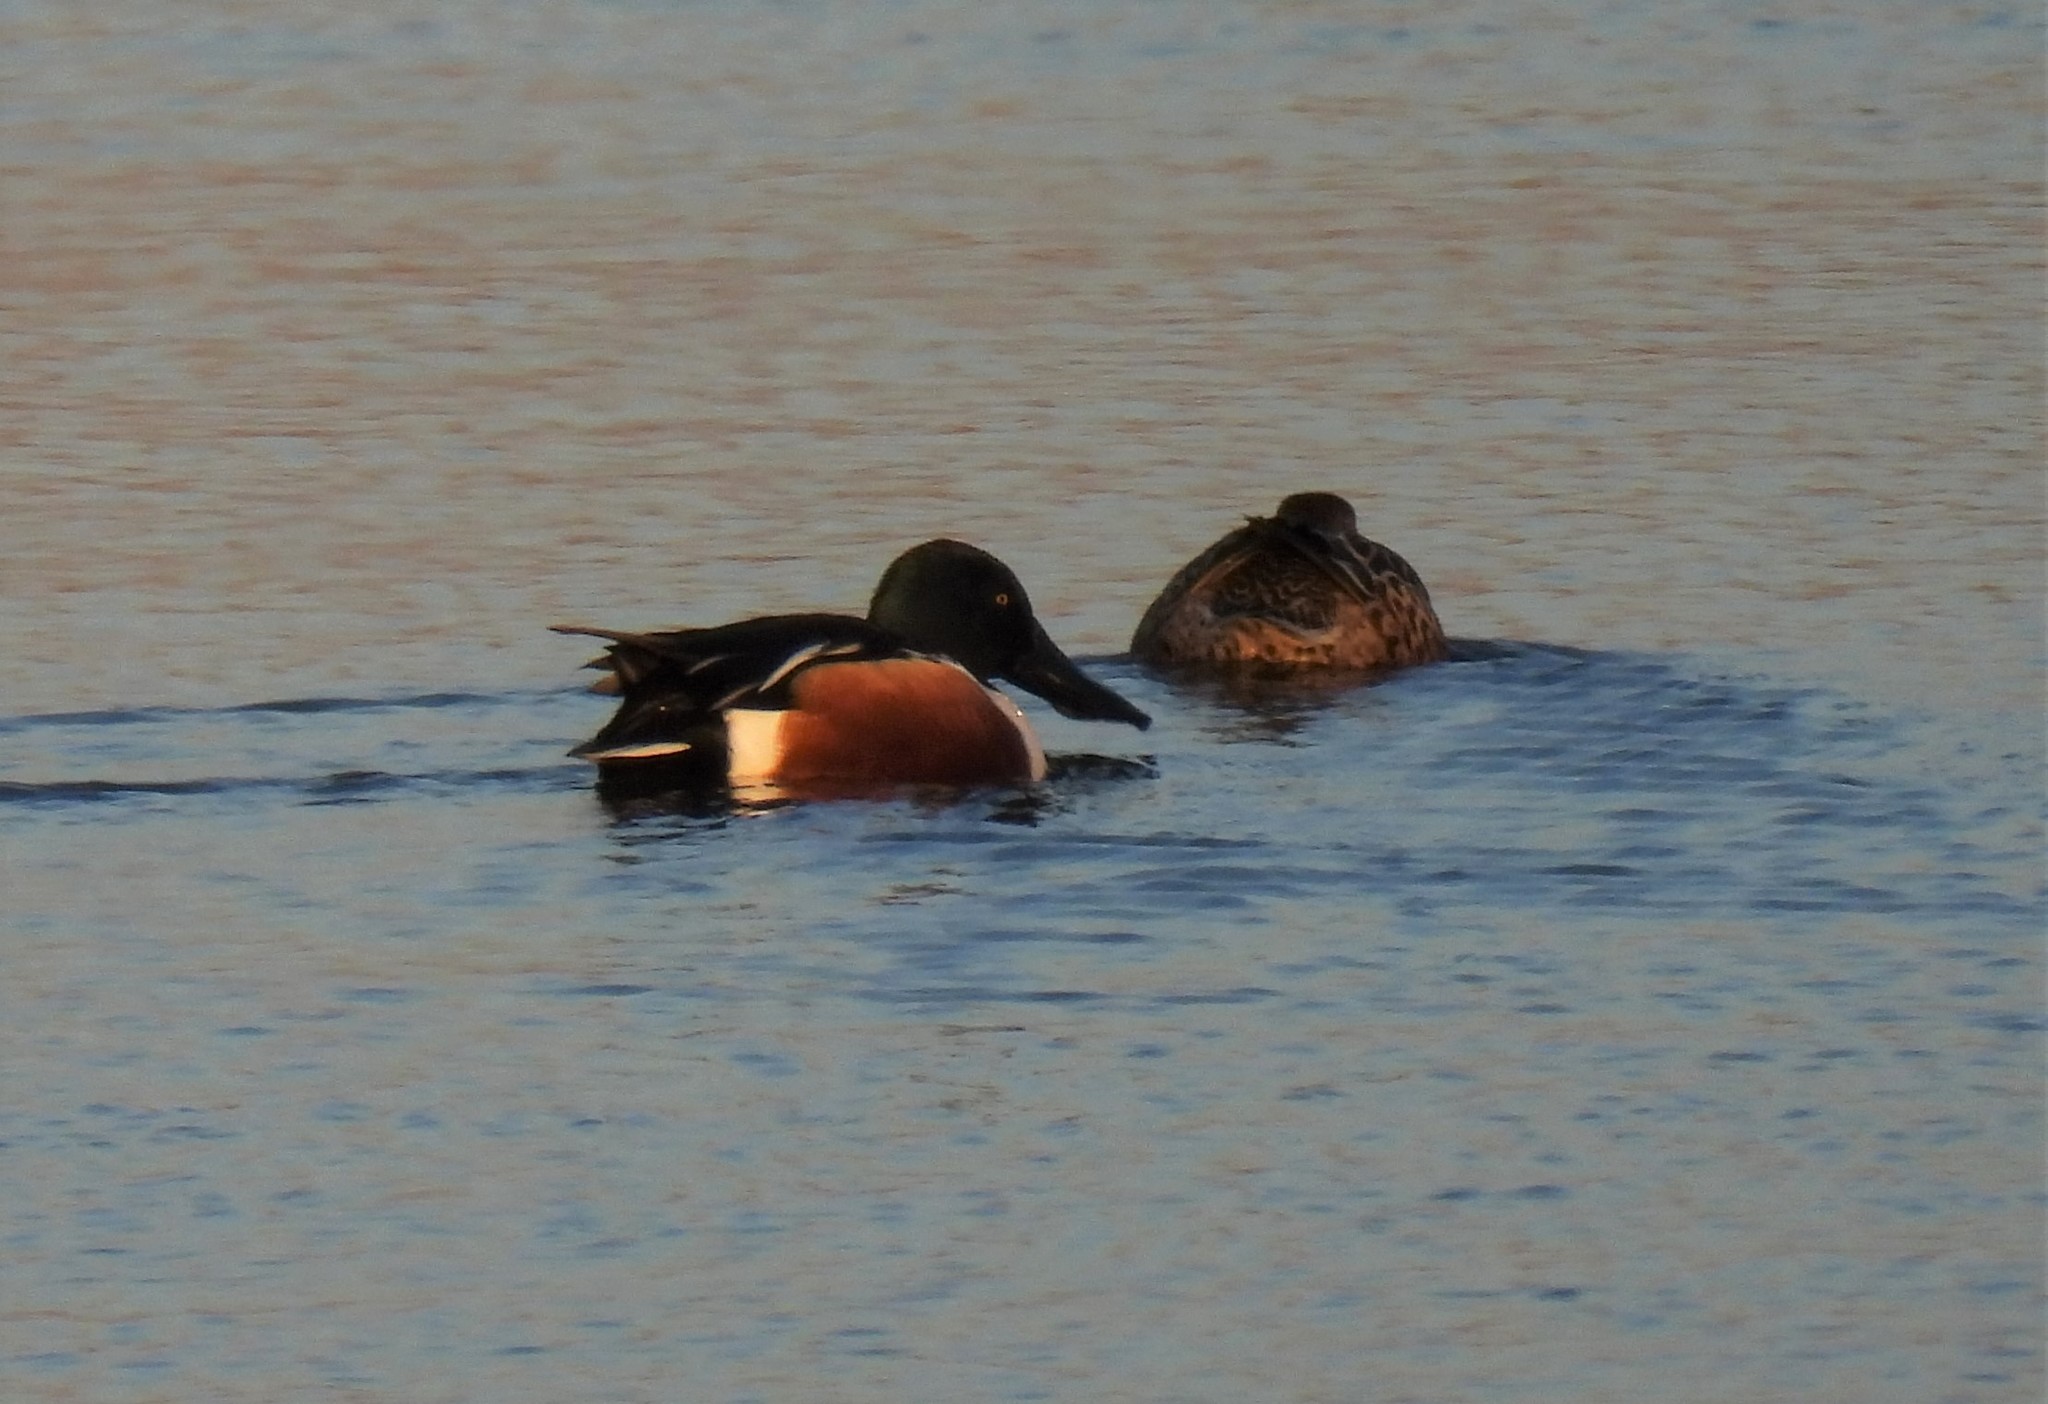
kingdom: Animalia
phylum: Chordata
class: Aves
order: Anseriformes
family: Anatidae
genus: Spatula
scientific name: Spatula clypeata
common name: Northern shoveler
